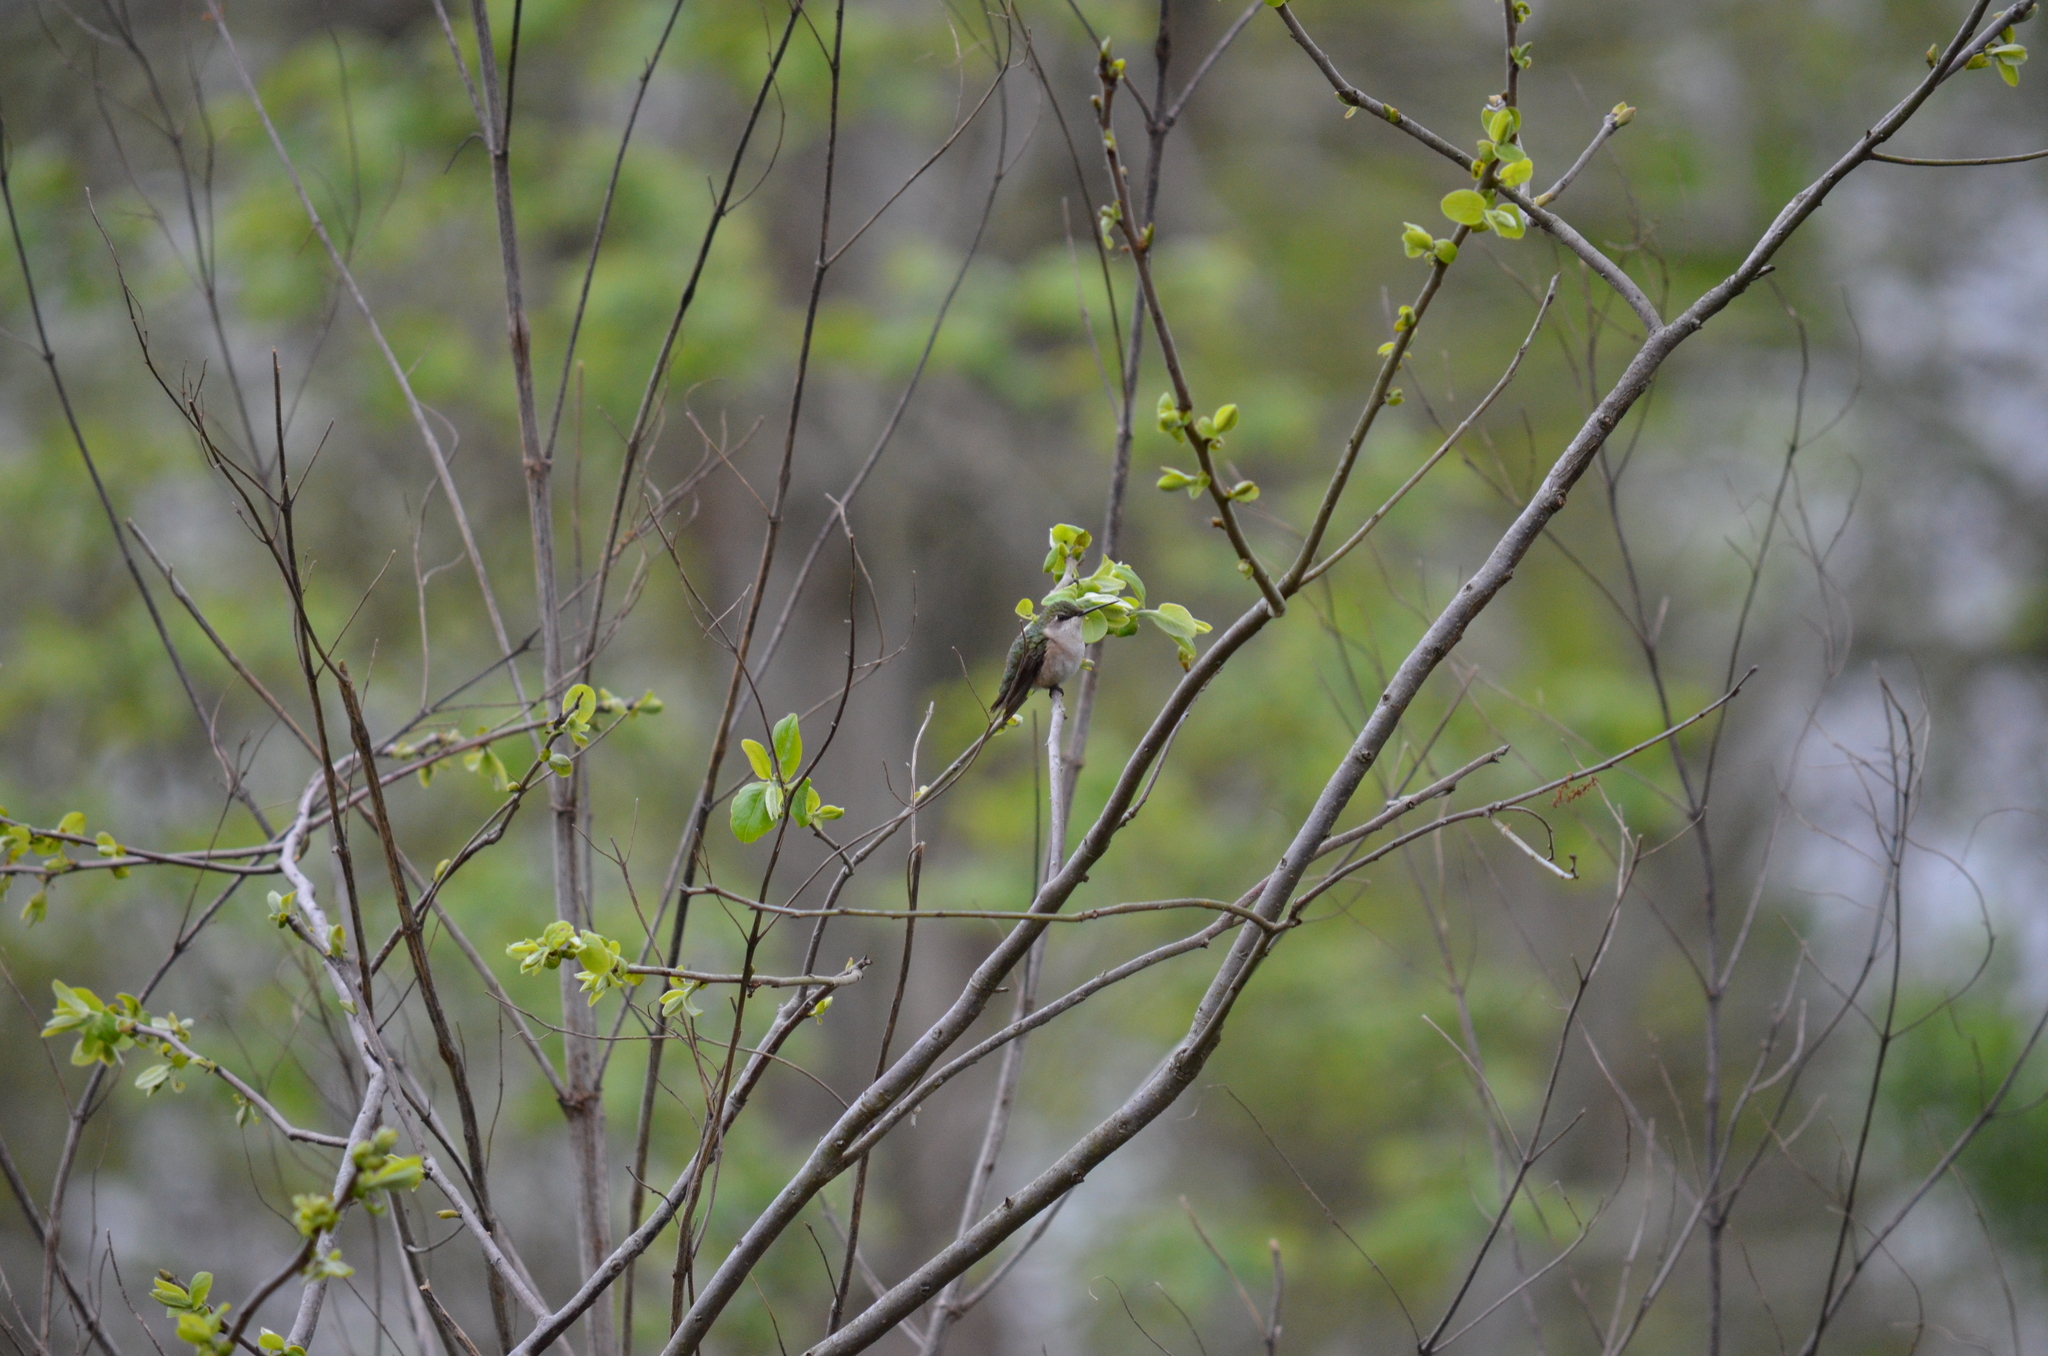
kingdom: Animalia
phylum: Chordata
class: Aves
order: Apodiformes
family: Trochilidae
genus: Archilochus
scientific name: Archilochus colubris
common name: Ruby-throated hummingbird
